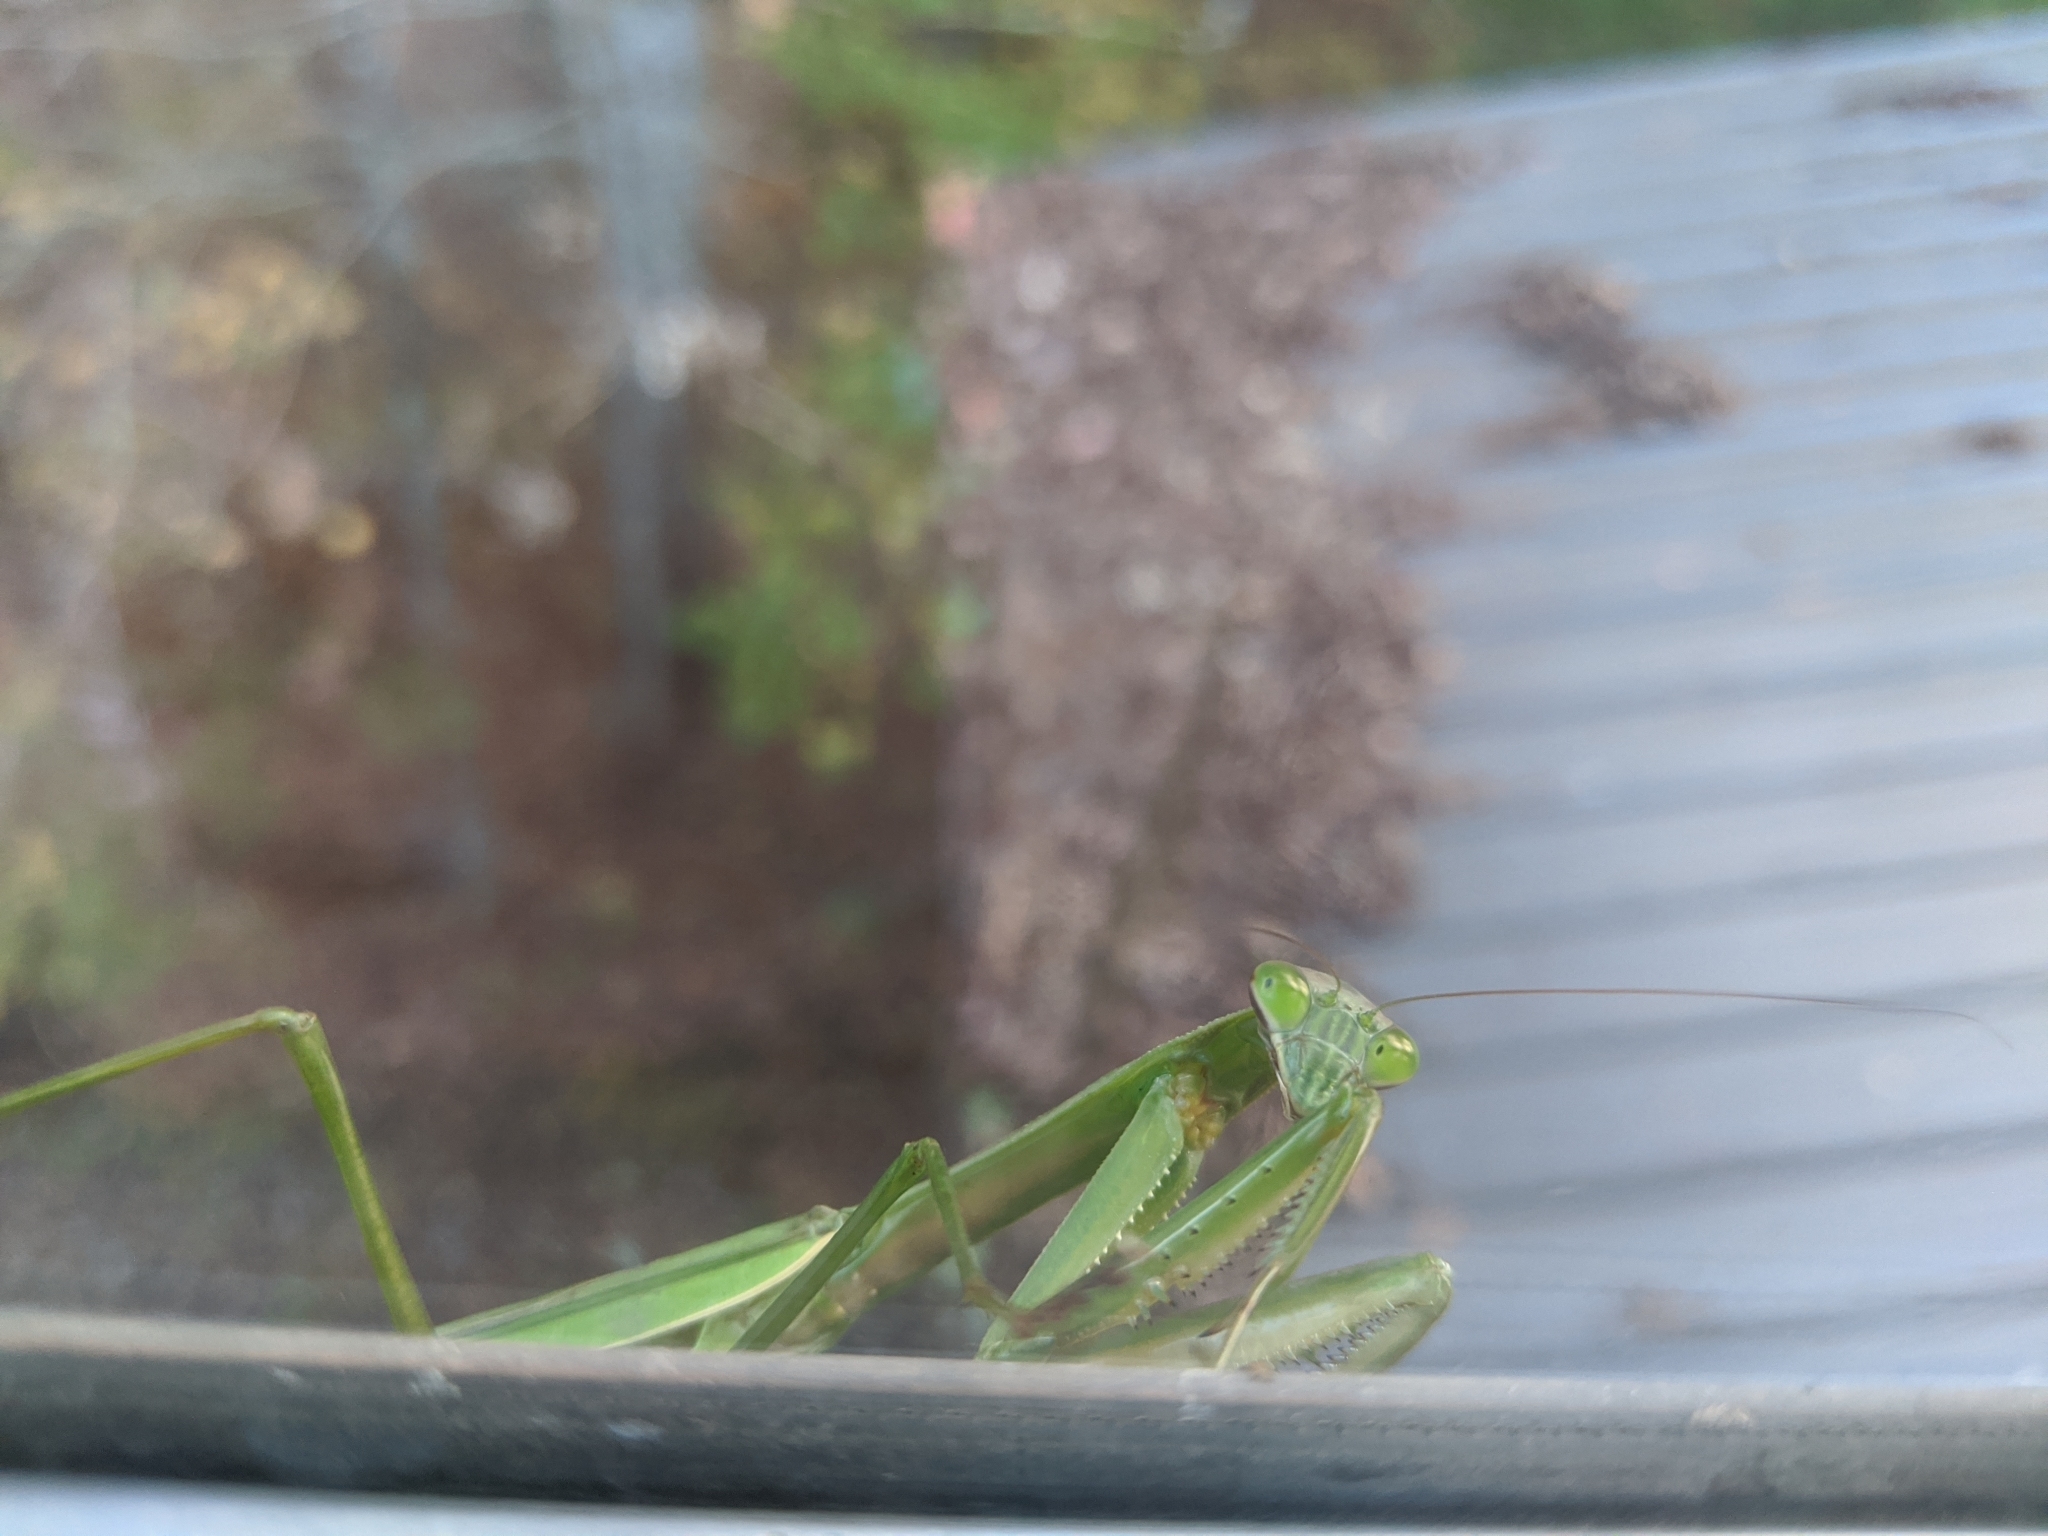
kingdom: Animalia
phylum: Arthropoda
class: Insecta
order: Mantodea
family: Mantidae
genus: Tenodera
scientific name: Tenodera sinensis
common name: Chinese mantis
